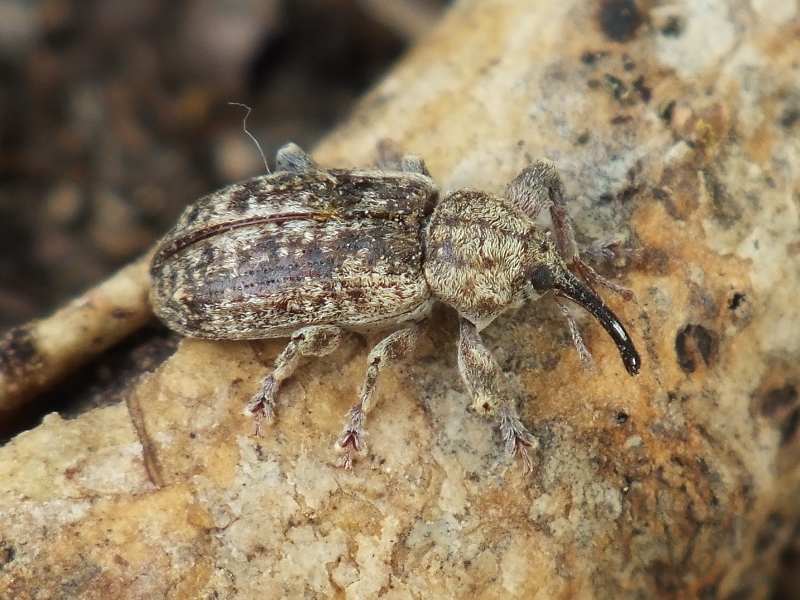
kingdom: Animalia
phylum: Arthropoda
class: Insecta
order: Coleoptera
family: Curculionidae
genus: Dorytomus
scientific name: Dorytomus tremulae
